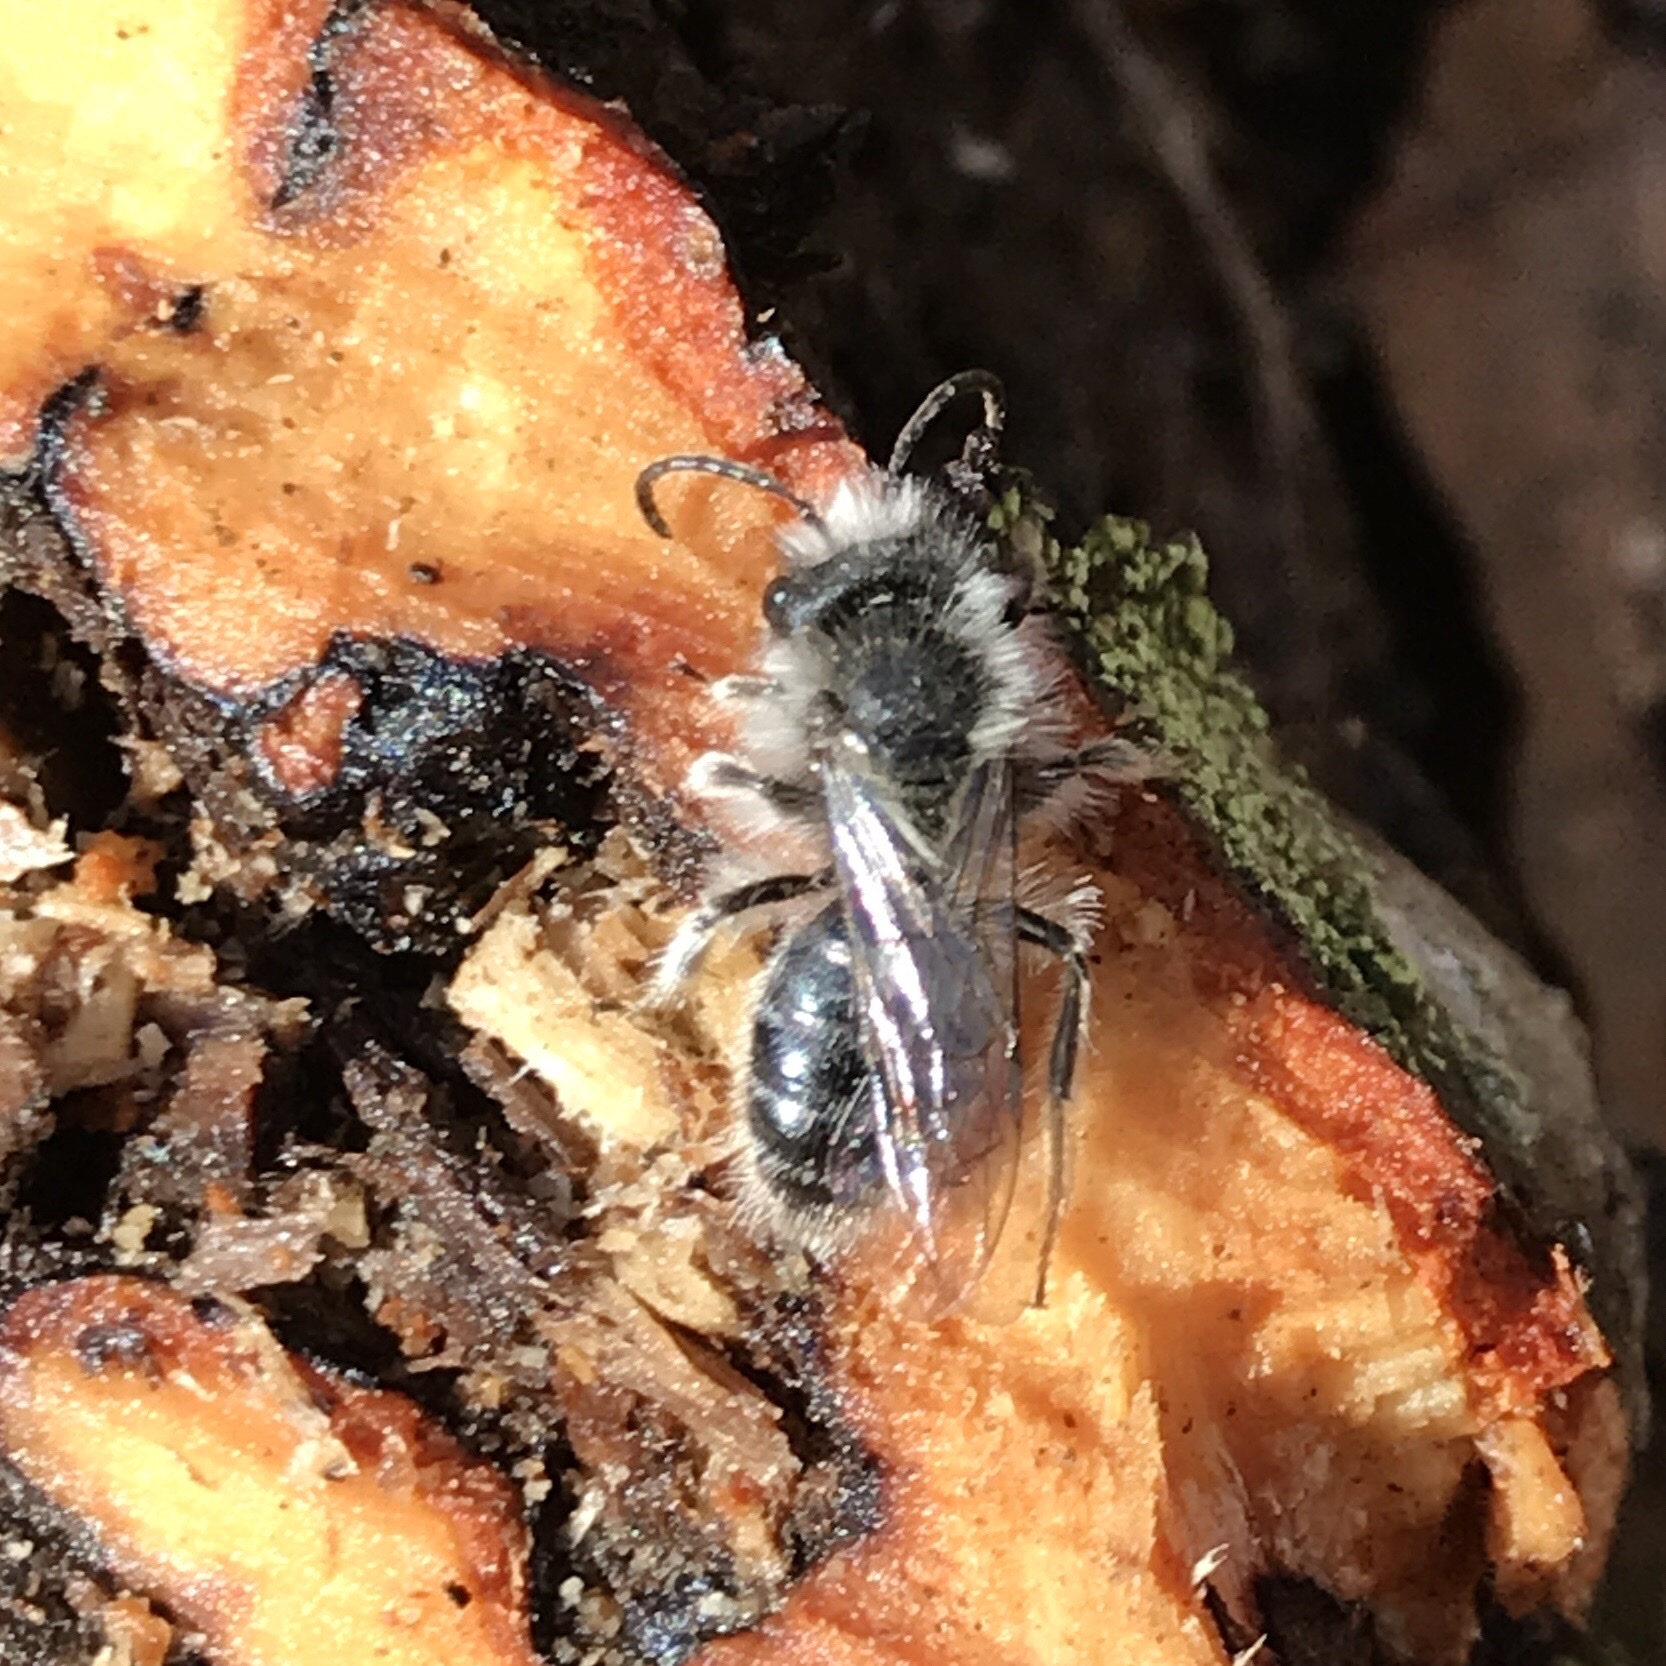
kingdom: Animalia
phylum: Arthropoda
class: Insecta
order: Hymenoptera
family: Andrenidae
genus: Andrena
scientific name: Andrena frigida
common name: Frigid mining bee
